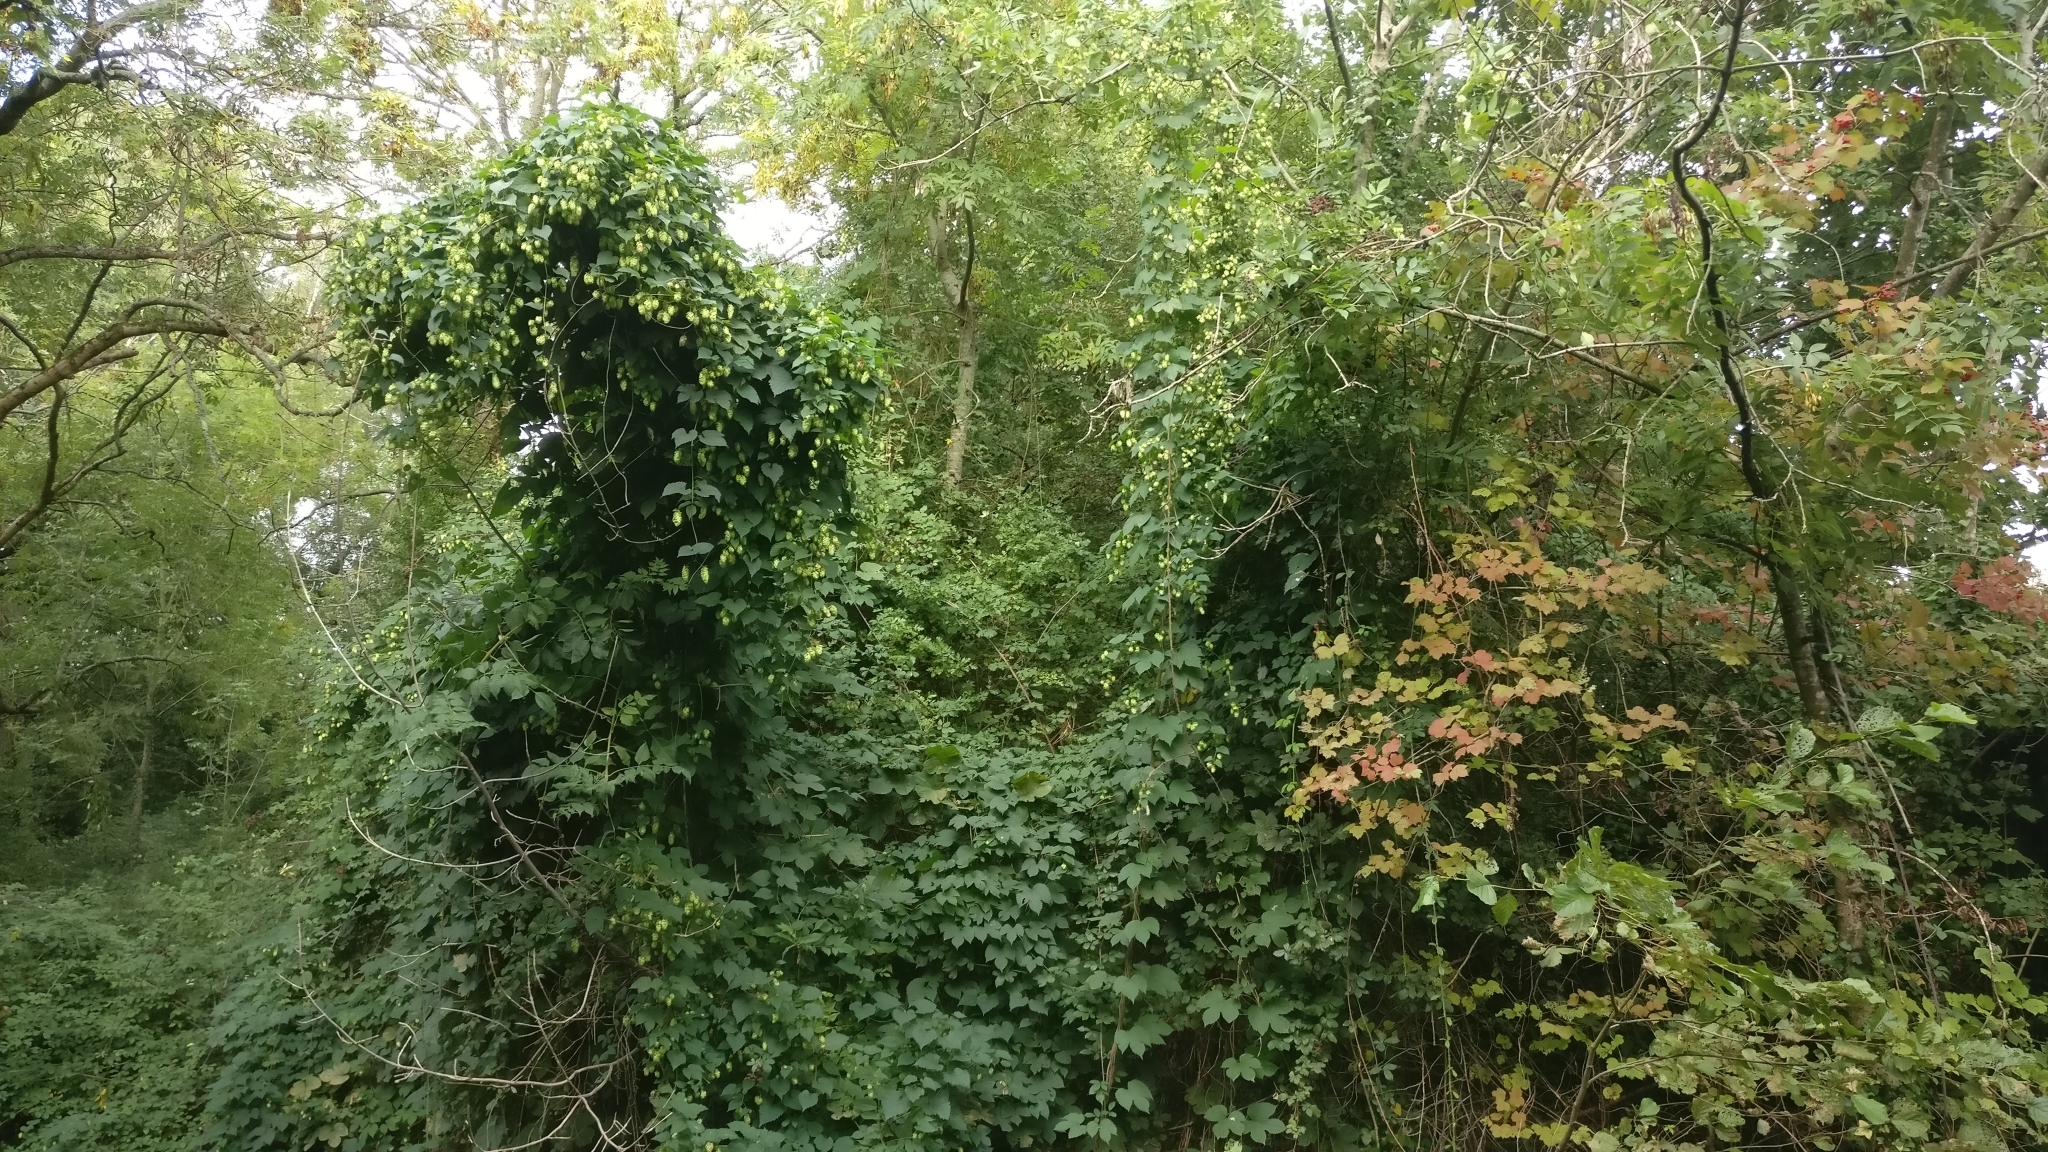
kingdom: Plantae
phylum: Tracheophyta
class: Magnoliopsida
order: Rosales
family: Cannabaceae
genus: Humulus
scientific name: Humulus lupulus
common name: Hop
